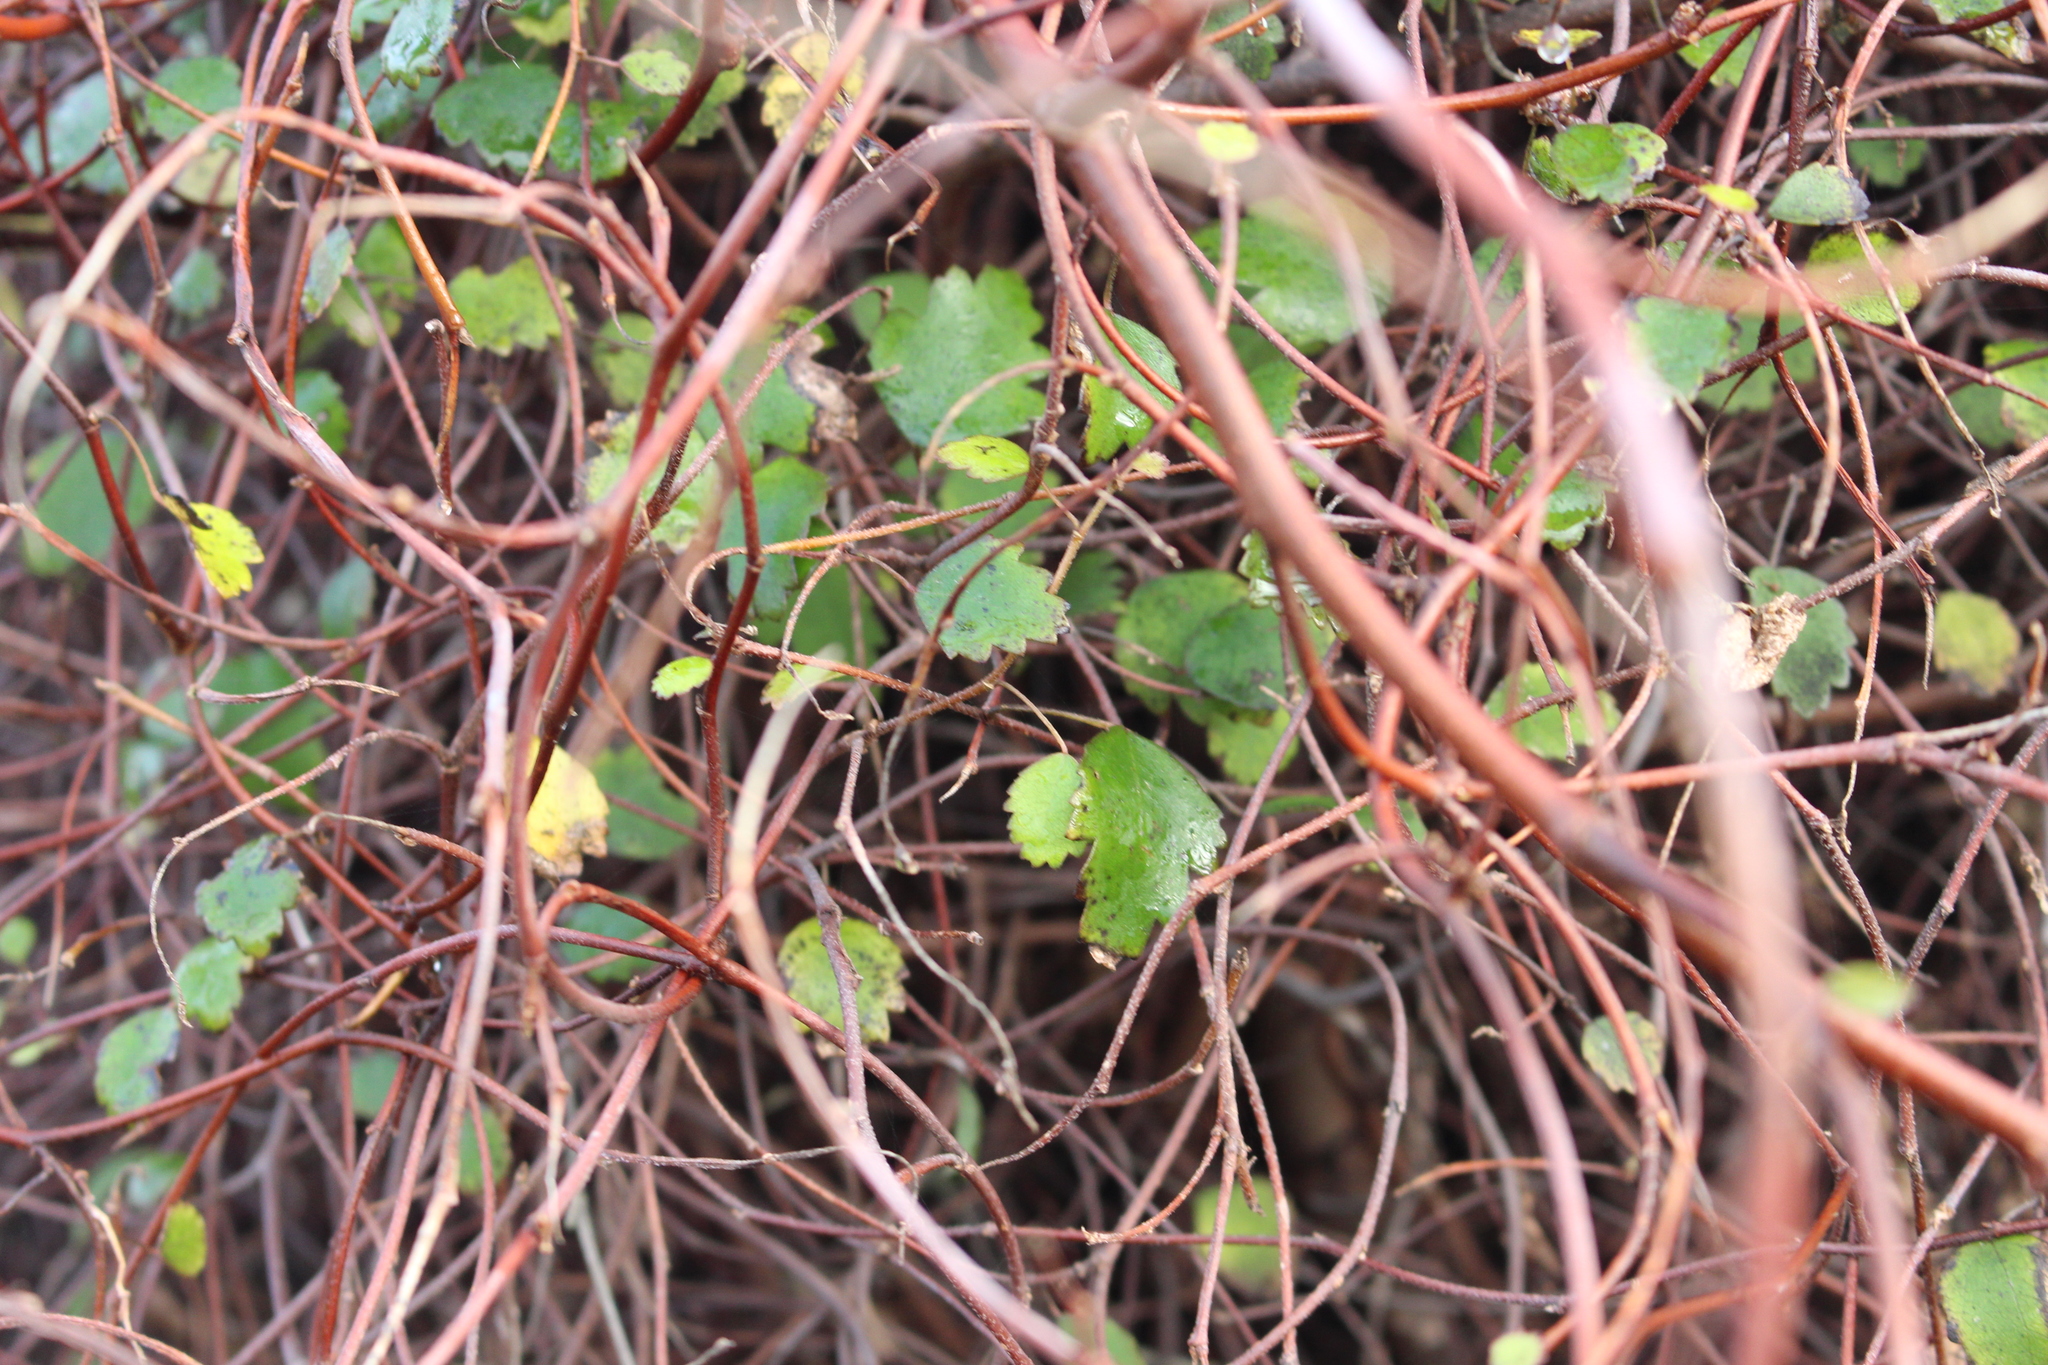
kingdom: Plantae
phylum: Tracheophyta
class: Magnoliopsida
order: Malvales
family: Malvaceae
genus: Plagianthus
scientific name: Plagianthus regius
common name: Manatu
